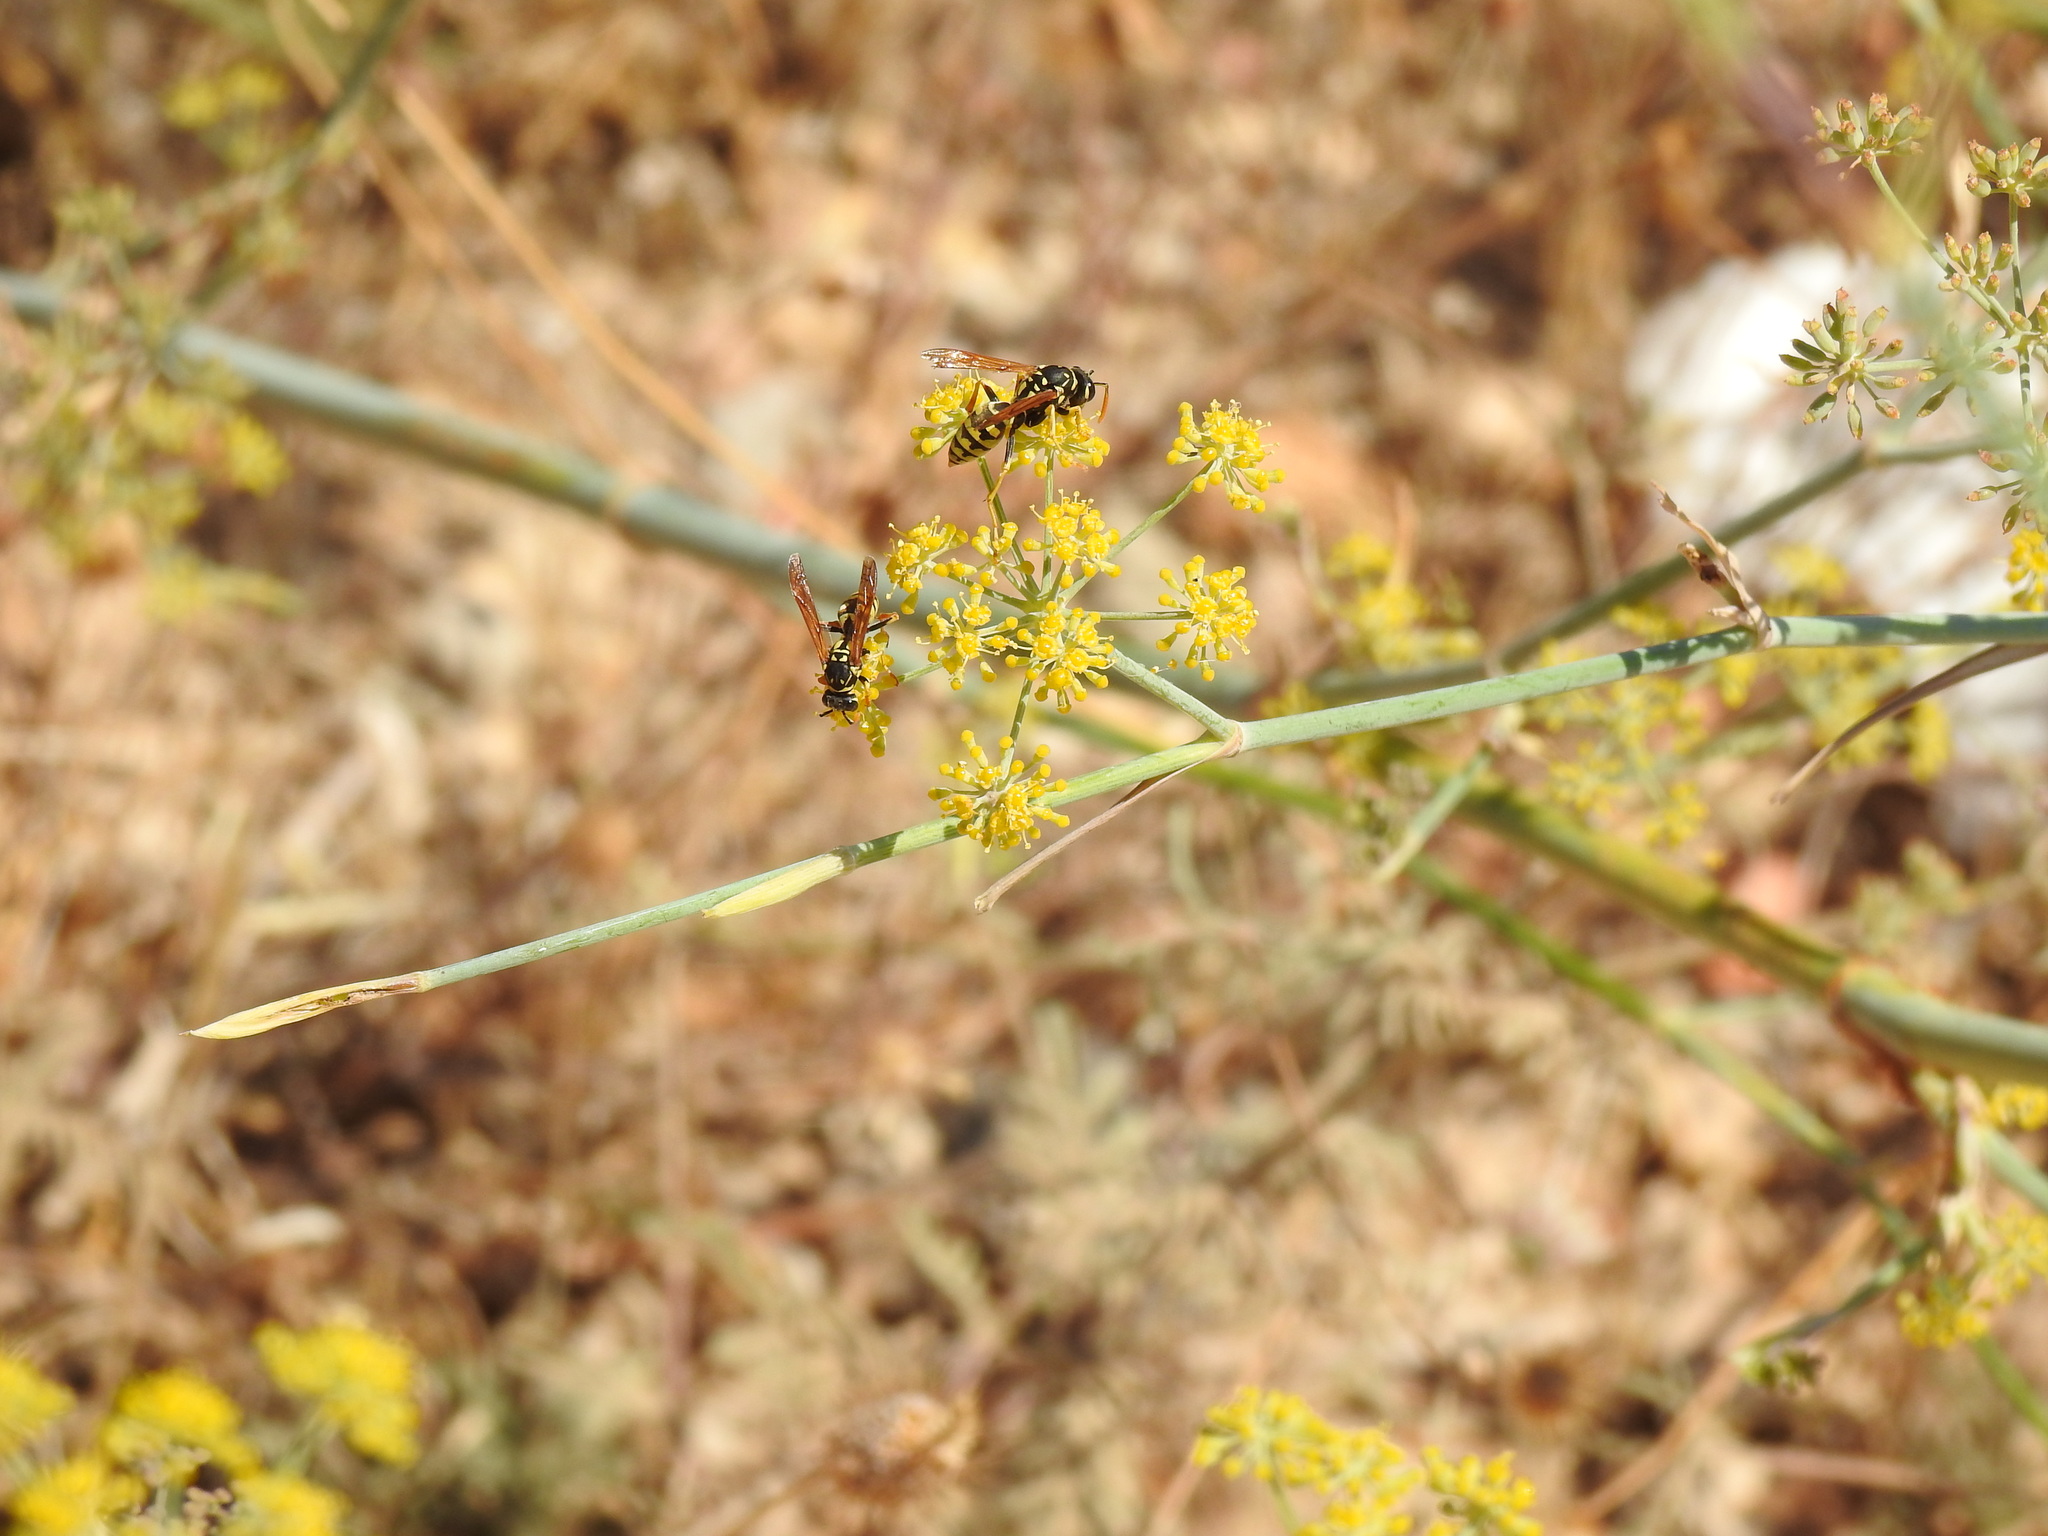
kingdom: Plantae
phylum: Tracheophyta
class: Magnoliopsida
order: Apiales
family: Apiaceae
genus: Foeniculum
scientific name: Foeniculum vulgare
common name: Fennel
